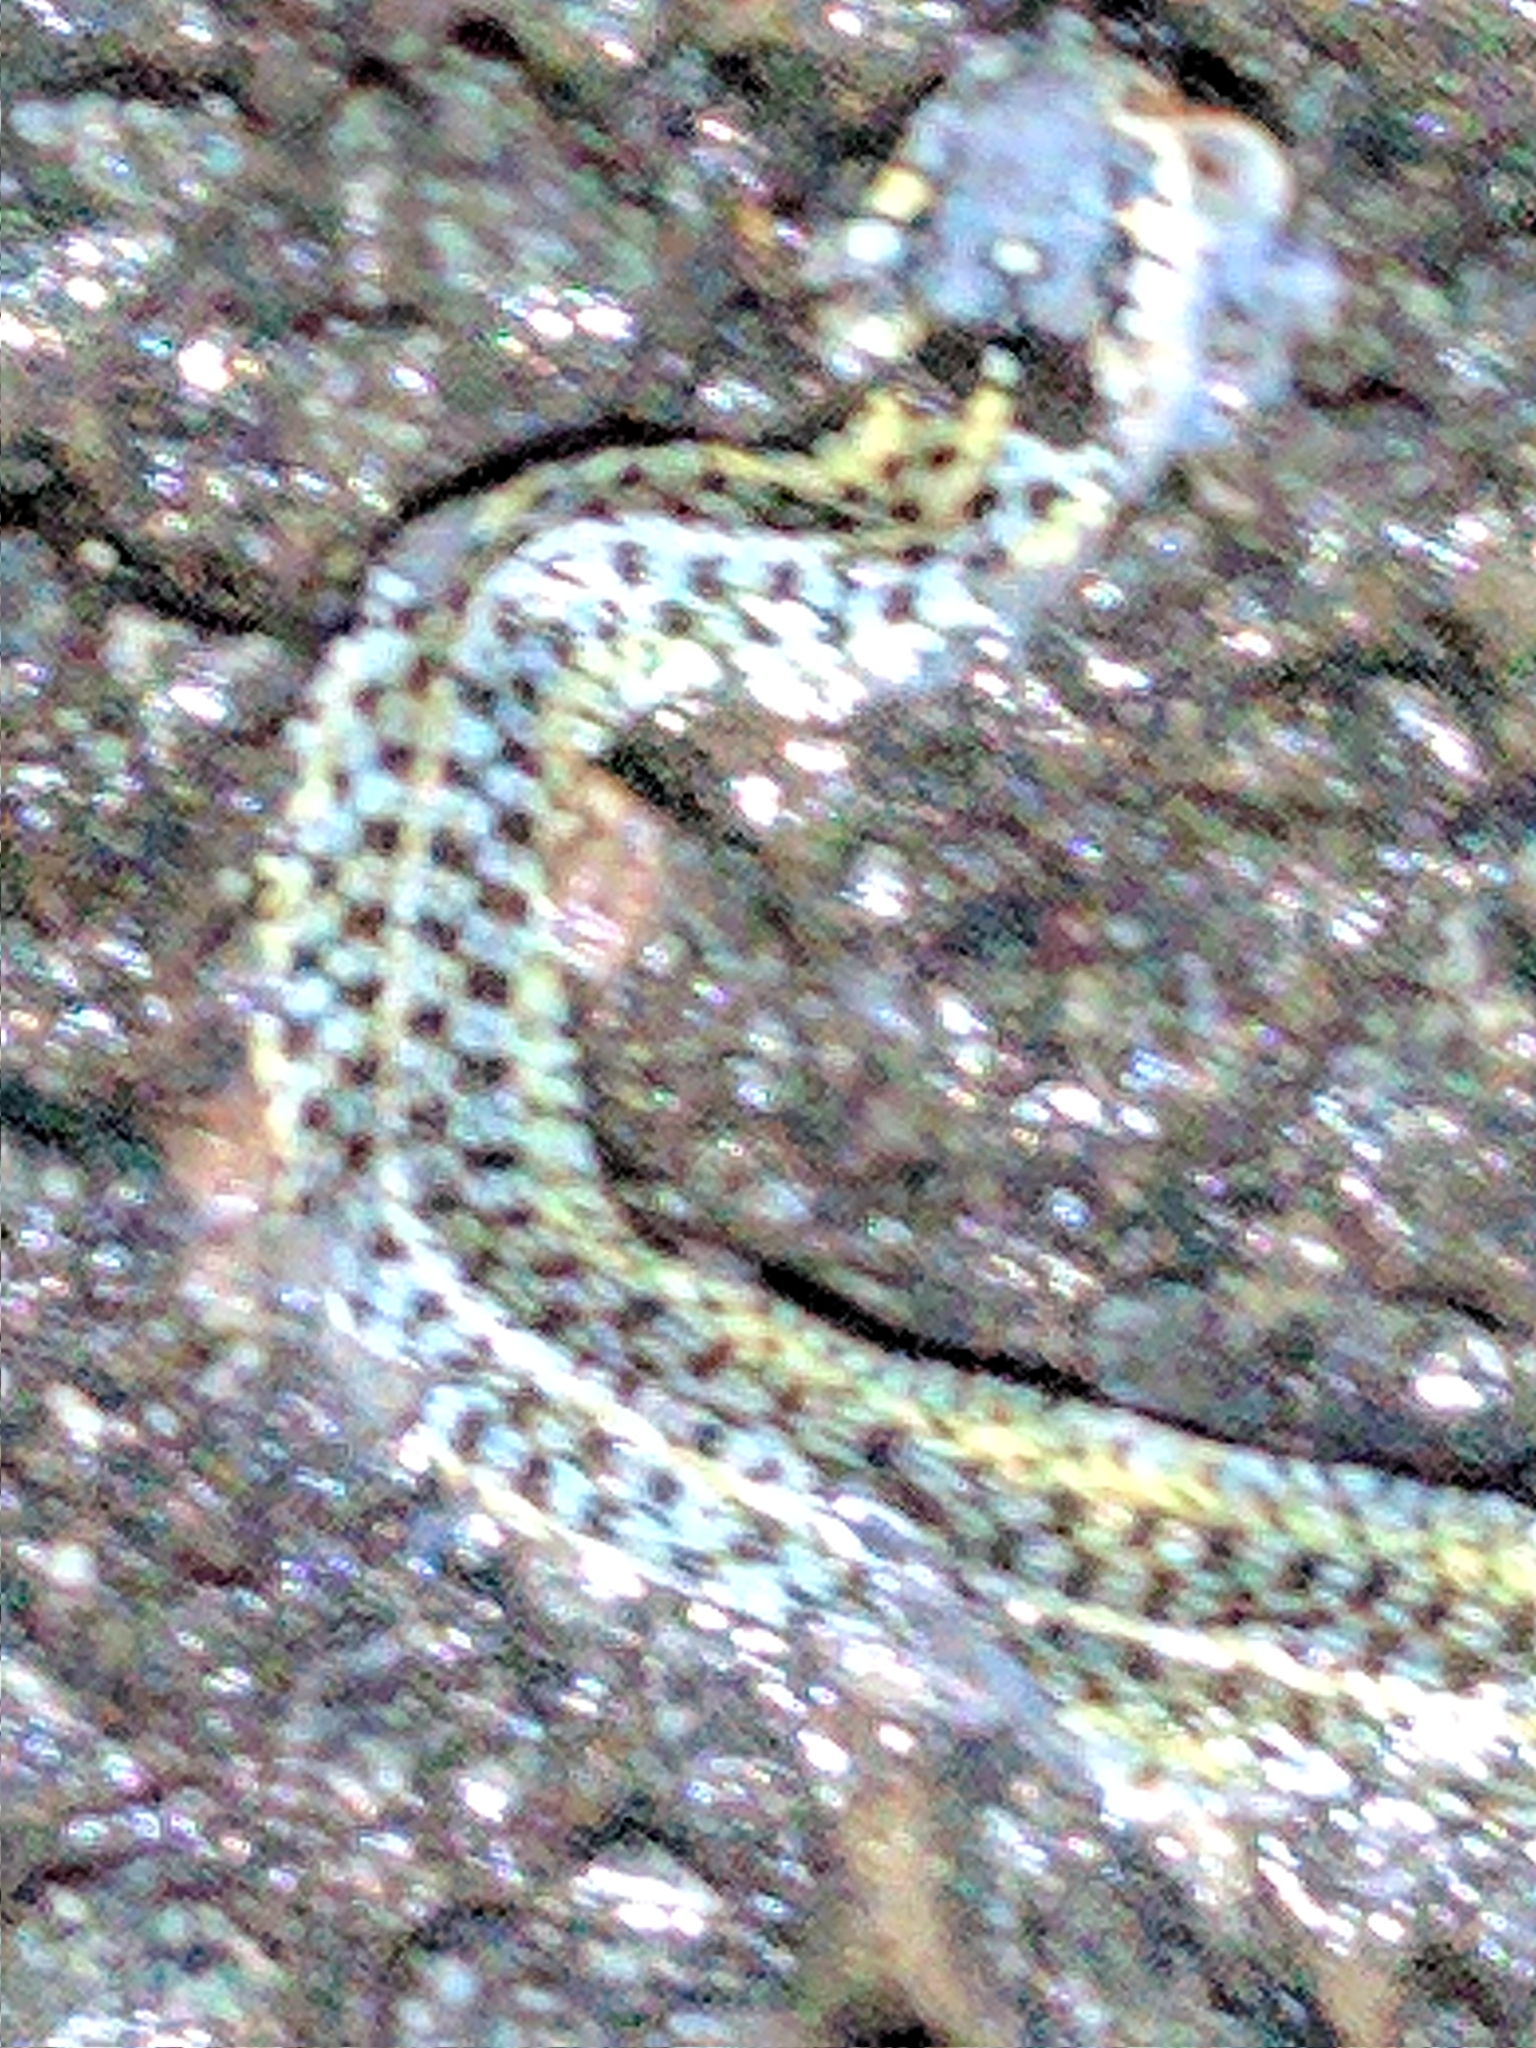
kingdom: Animalia
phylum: Chordata
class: Squamata
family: Colubridae
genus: Thamnophis
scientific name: Thamnophis sirtalis
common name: Common garter snake
